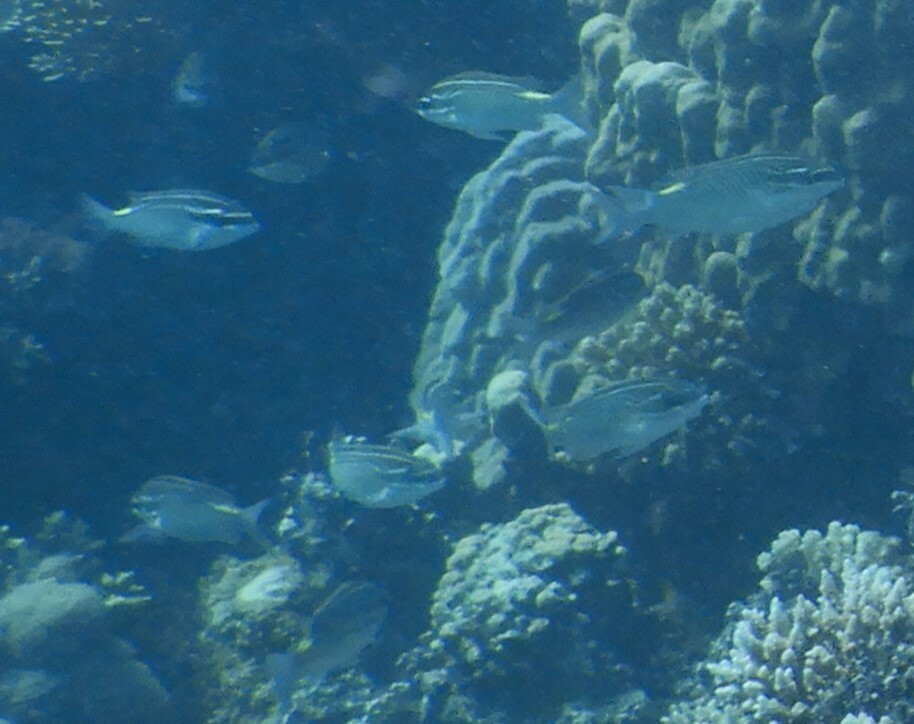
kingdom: Animalia
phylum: Chordata
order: Perciformes
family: Nemipteridae
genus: Scolopsis
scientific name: Scolopsis ghanam
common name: Arabian monocle bream
